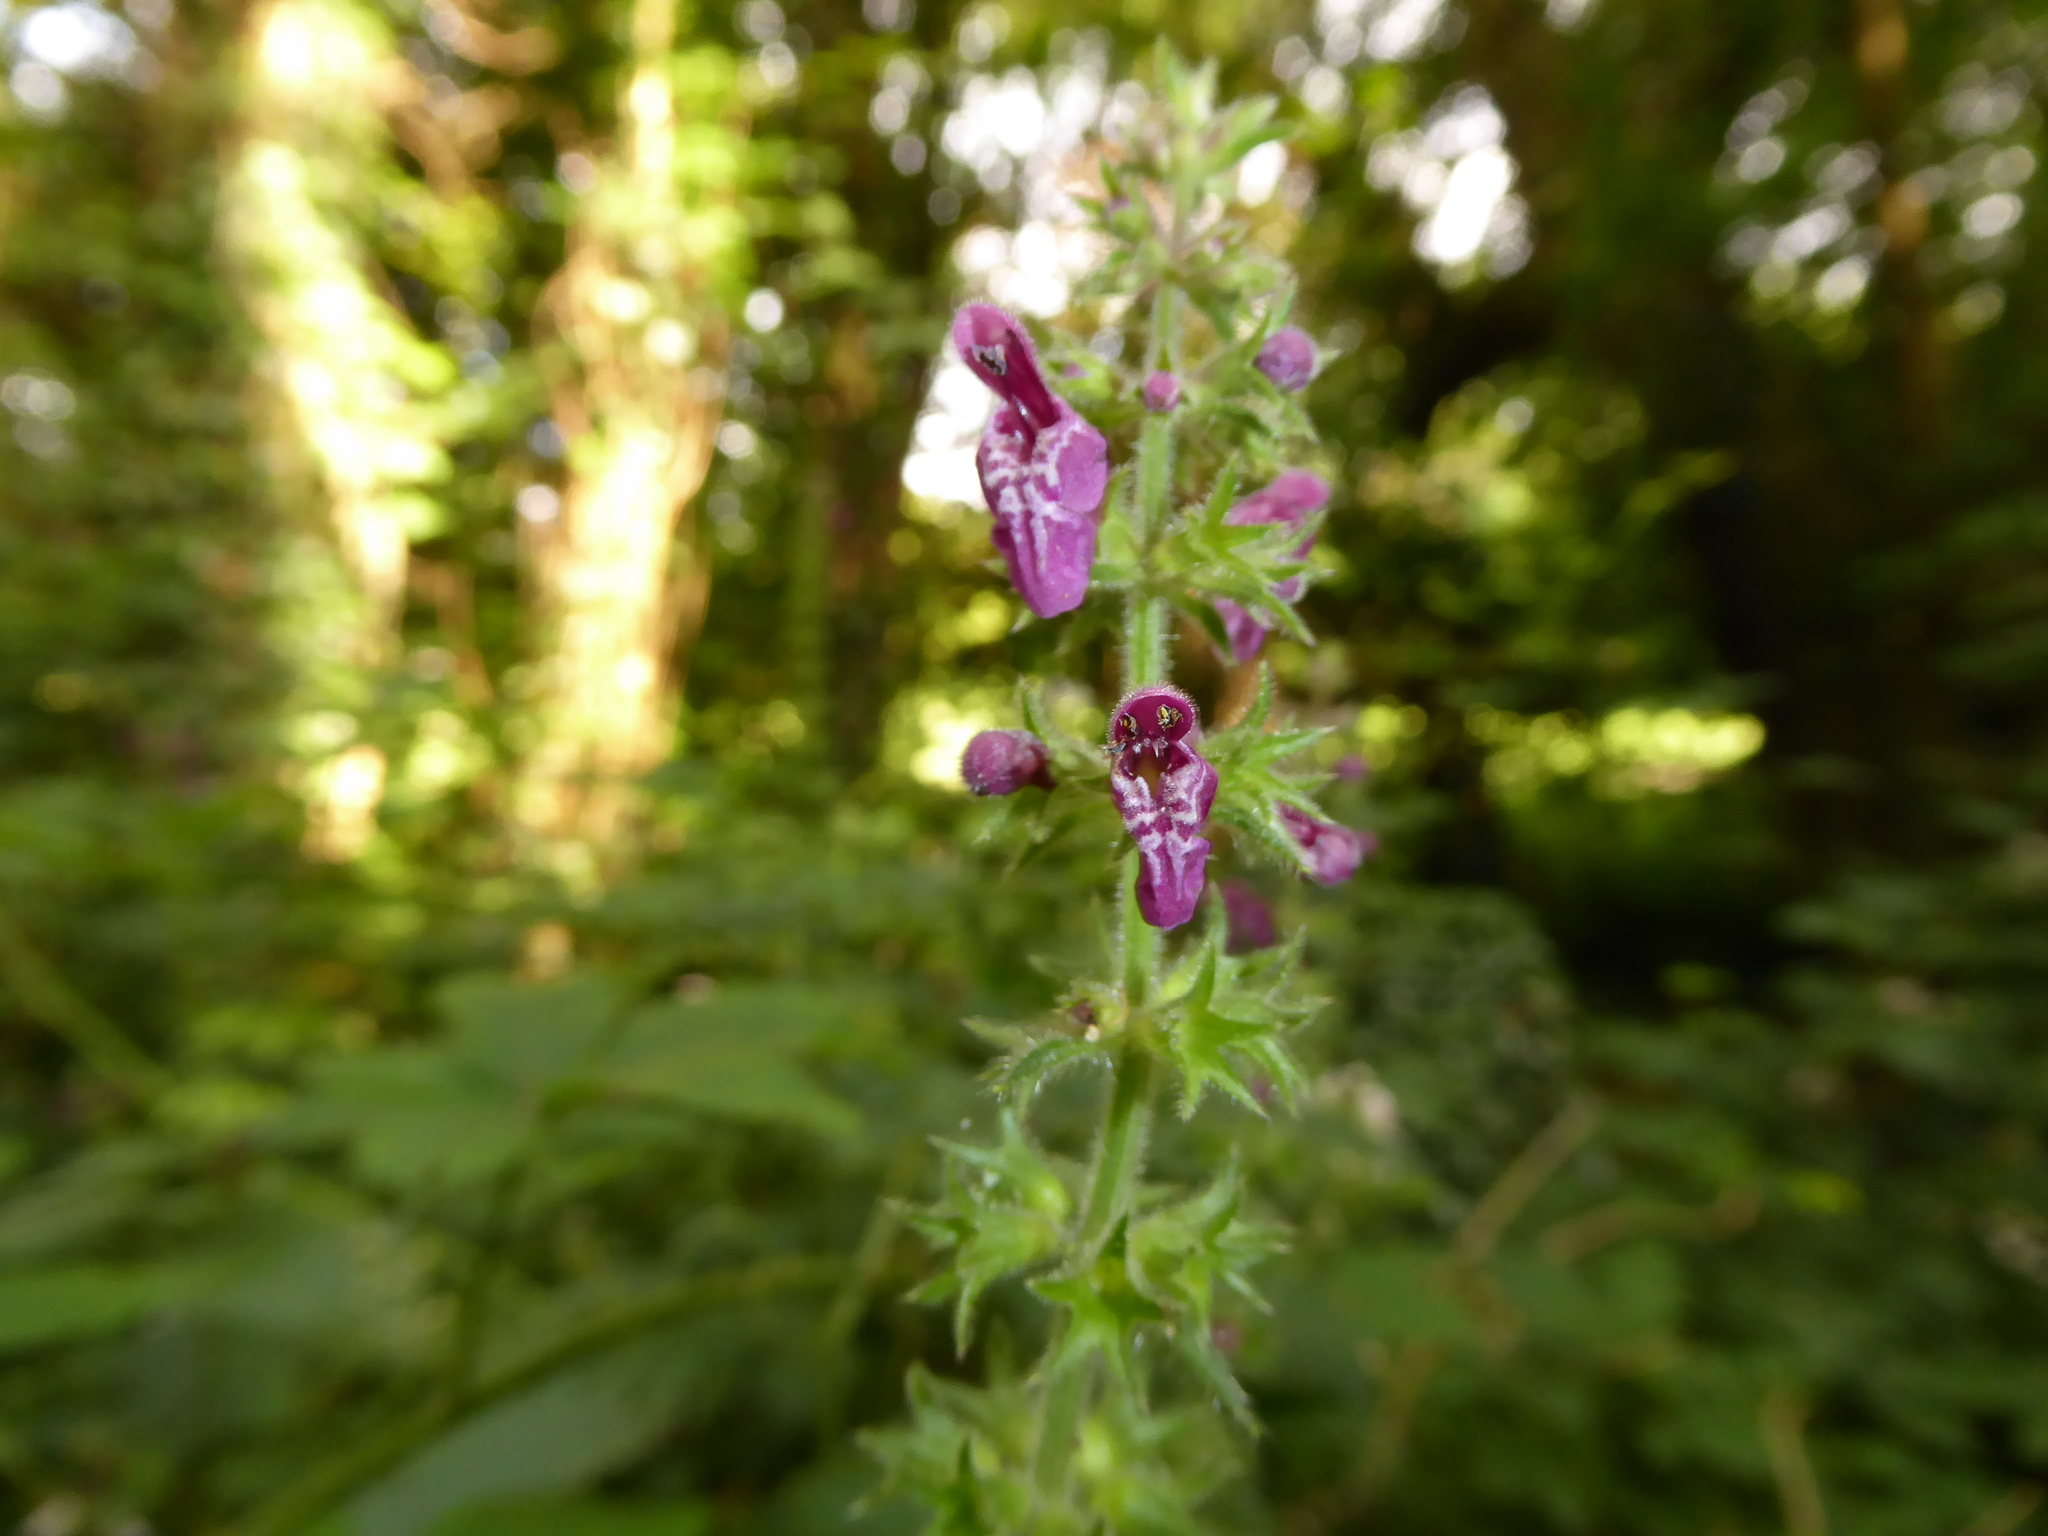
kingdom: Plantae
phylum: Tracheophyta
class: Magnoliopsida
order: Lamiales
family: Lamiaceae
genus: Stachys
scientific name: Stachys sylvatica
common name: Hedge woundwort
